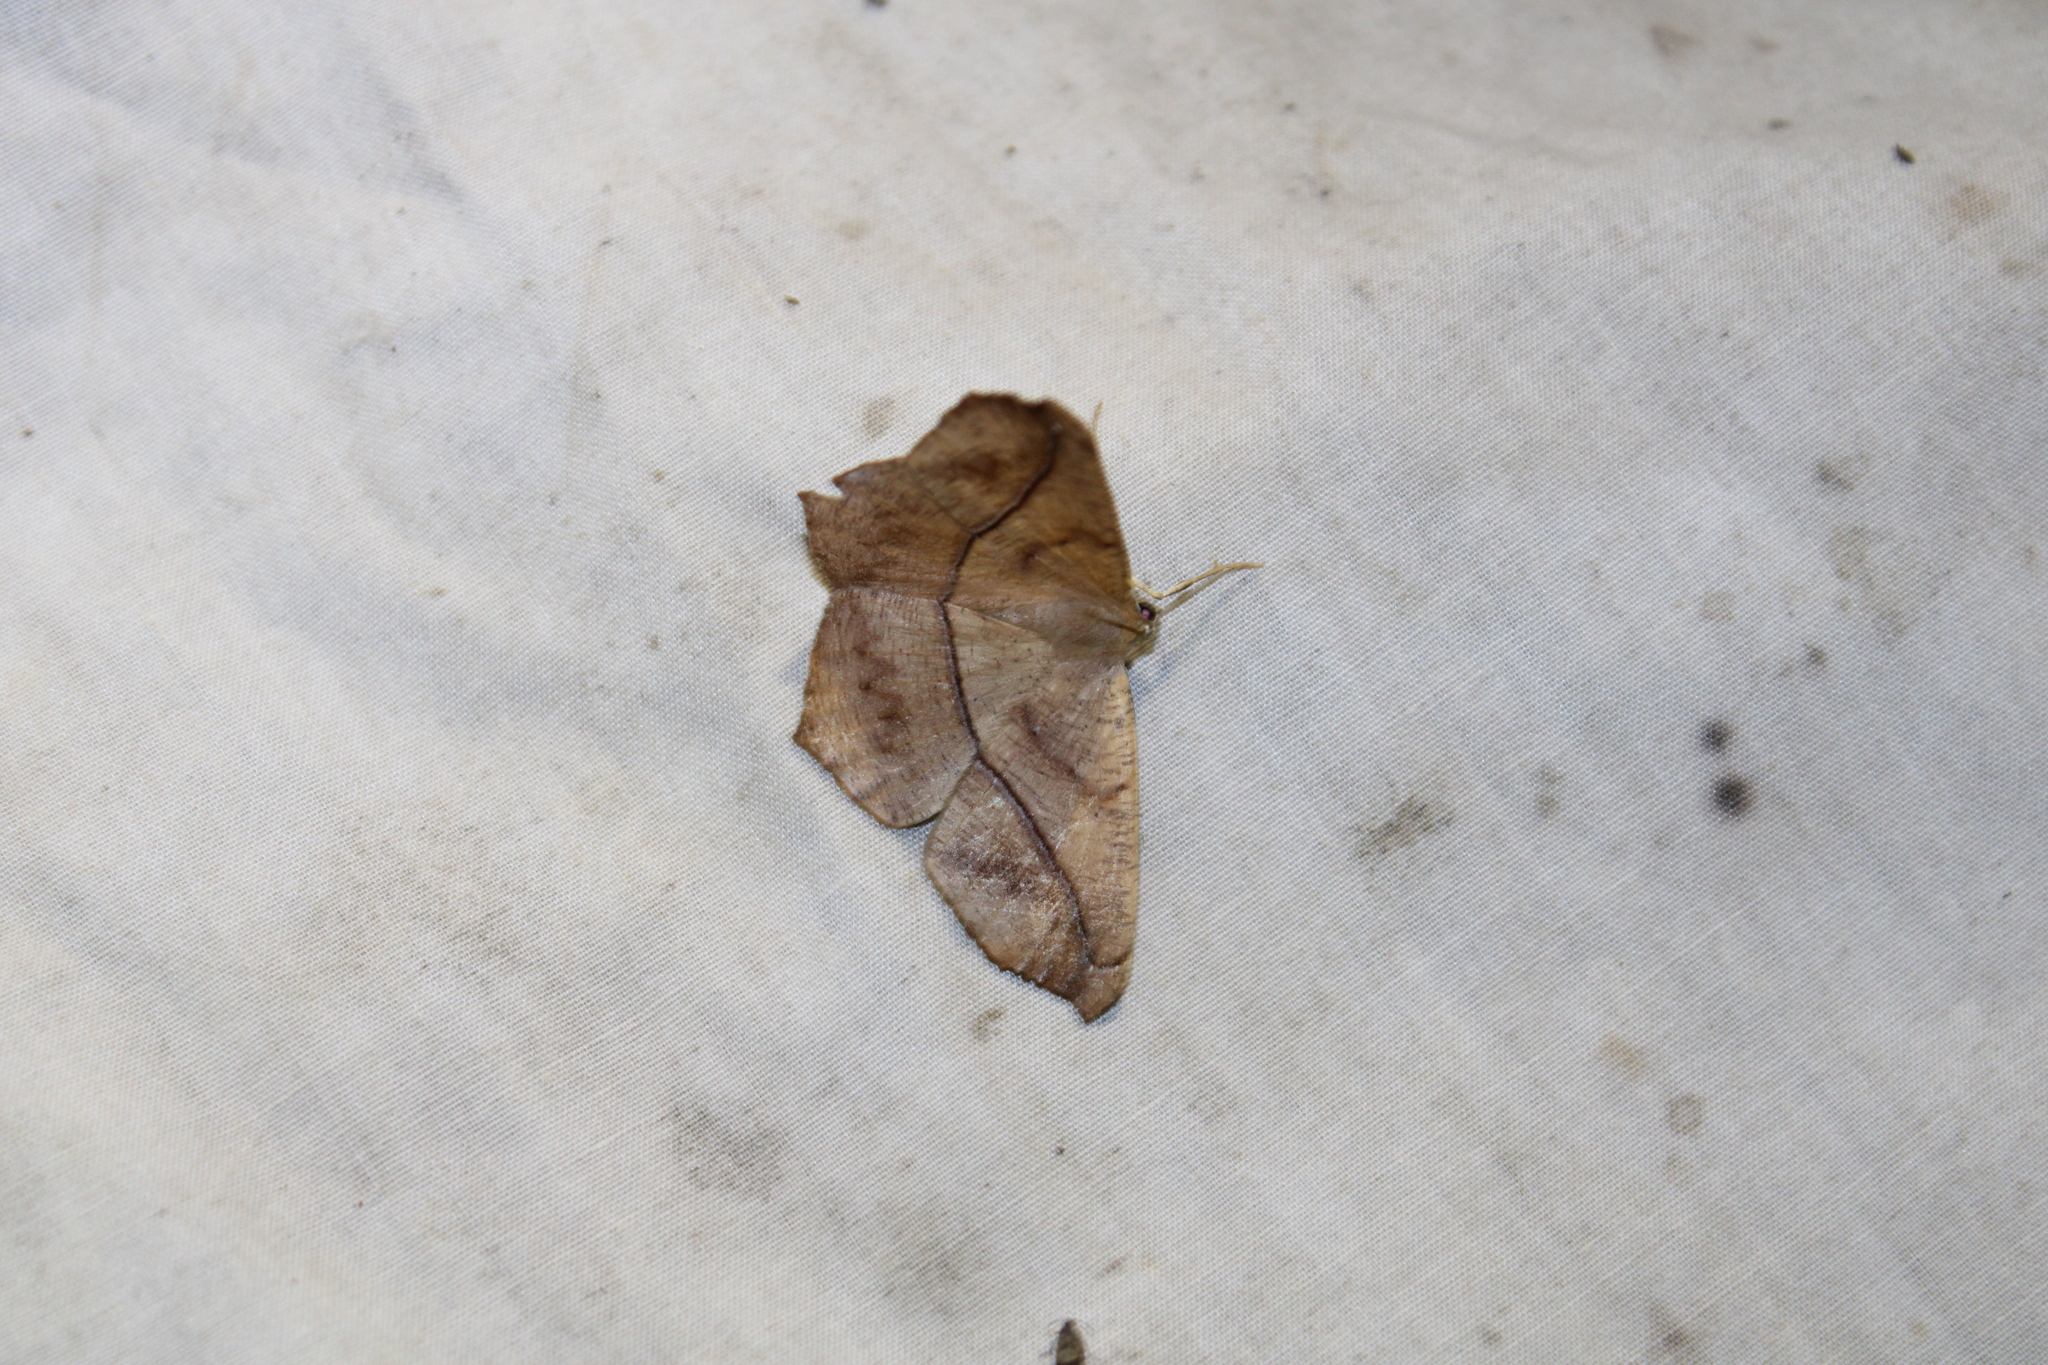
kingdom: Animalia
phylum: Arthropoda
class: Insecta
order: Lepidoptera
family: Geometridae
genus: Prochoerodes
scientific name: Prochoerodes lineola
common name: Large maple spanworm
